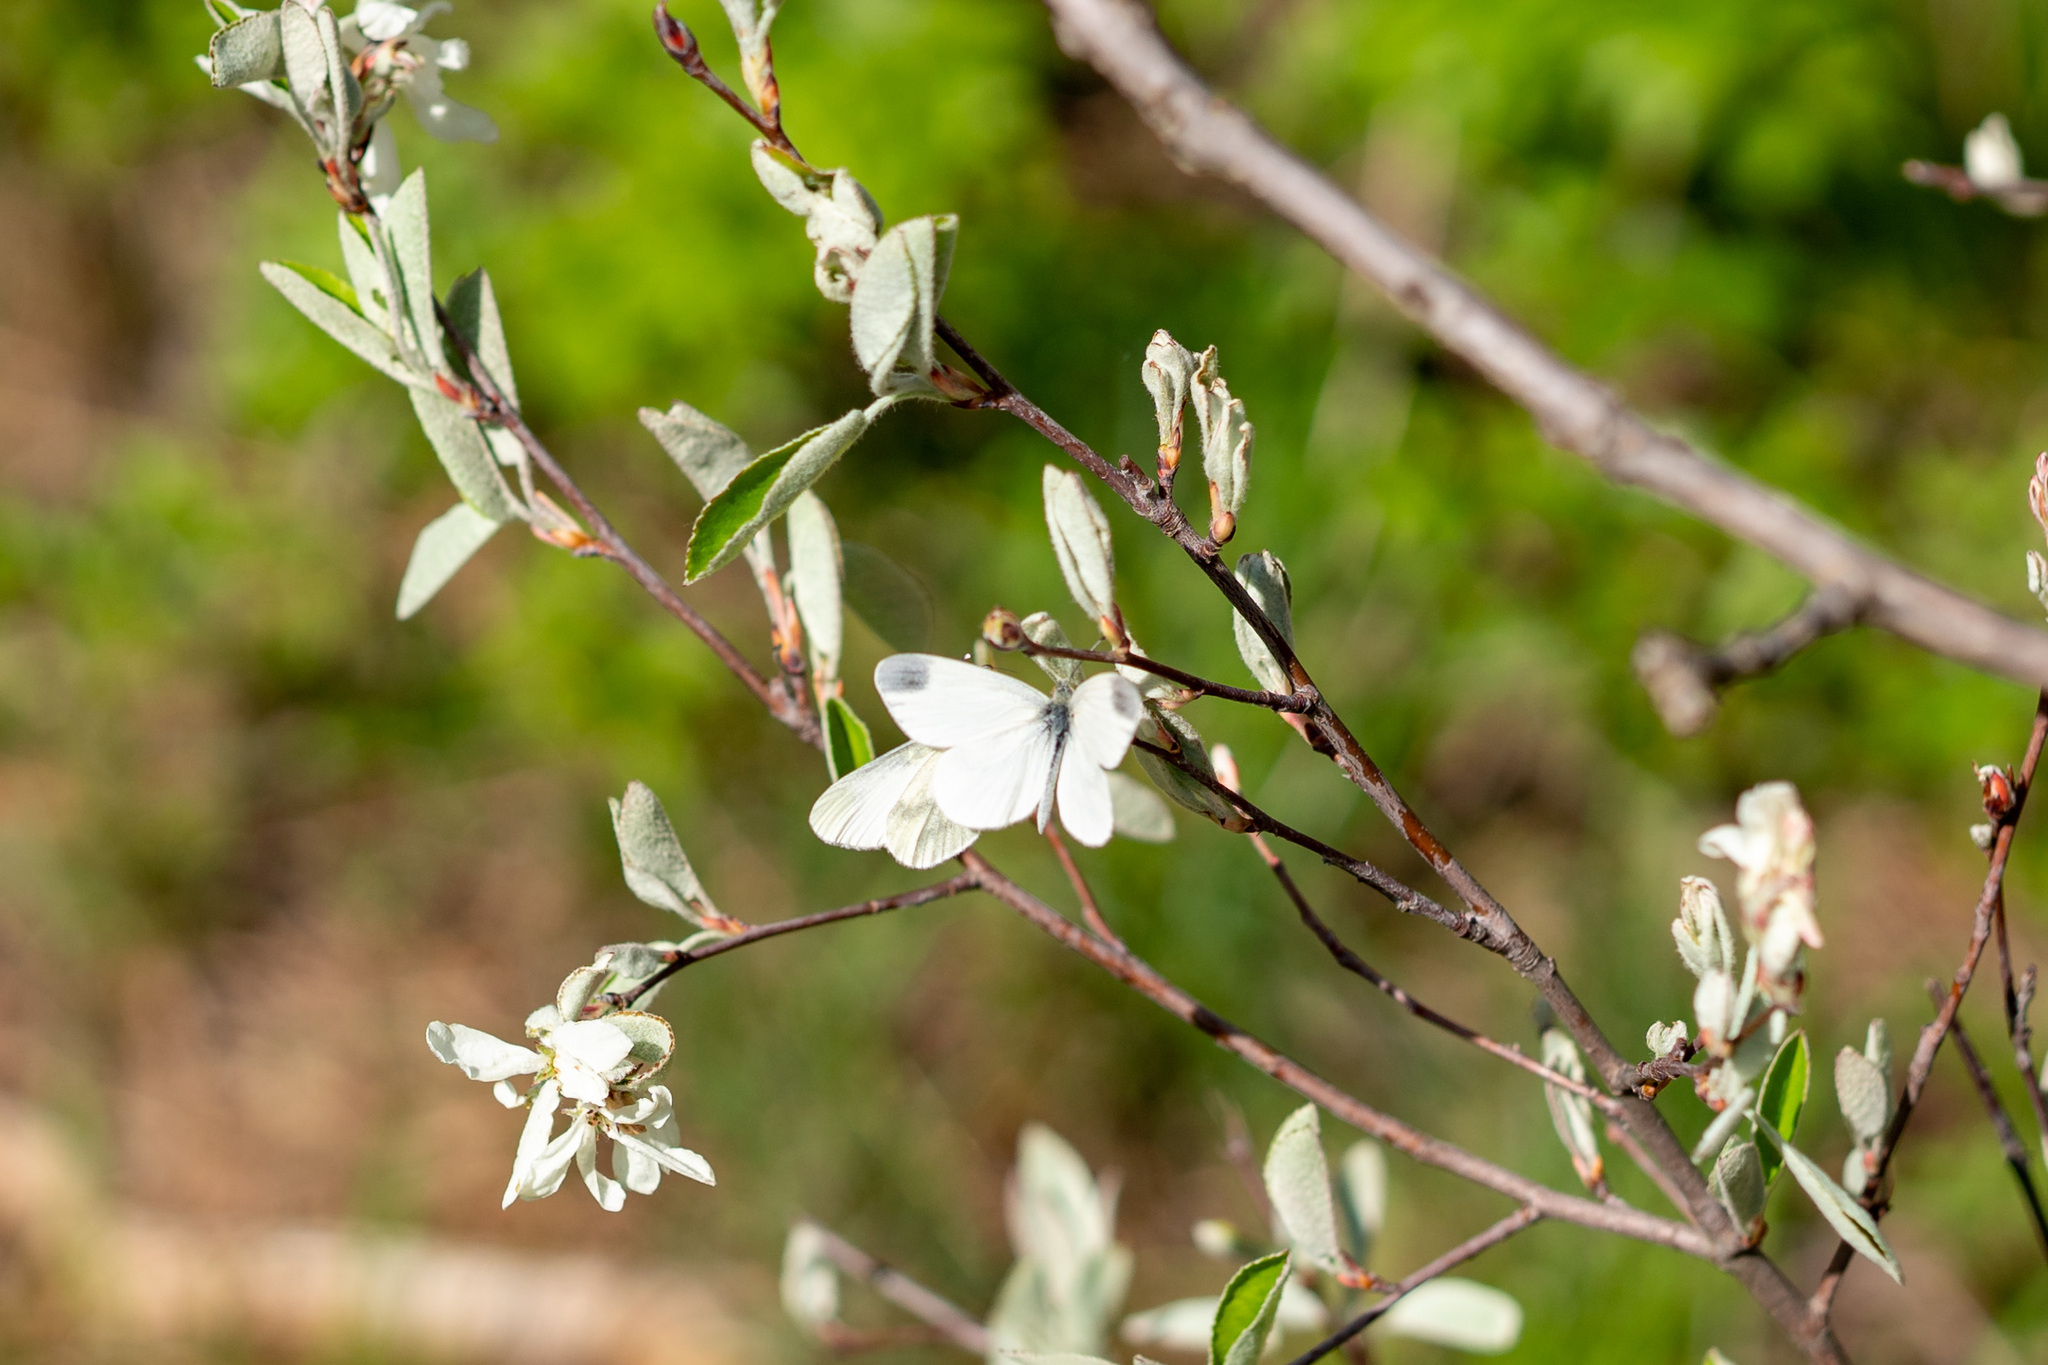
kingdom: Animalia
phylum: Arthropoda
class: Insecta
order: Lepidoptera
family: Pieridae
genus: Leptidea
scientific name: Leptidea
